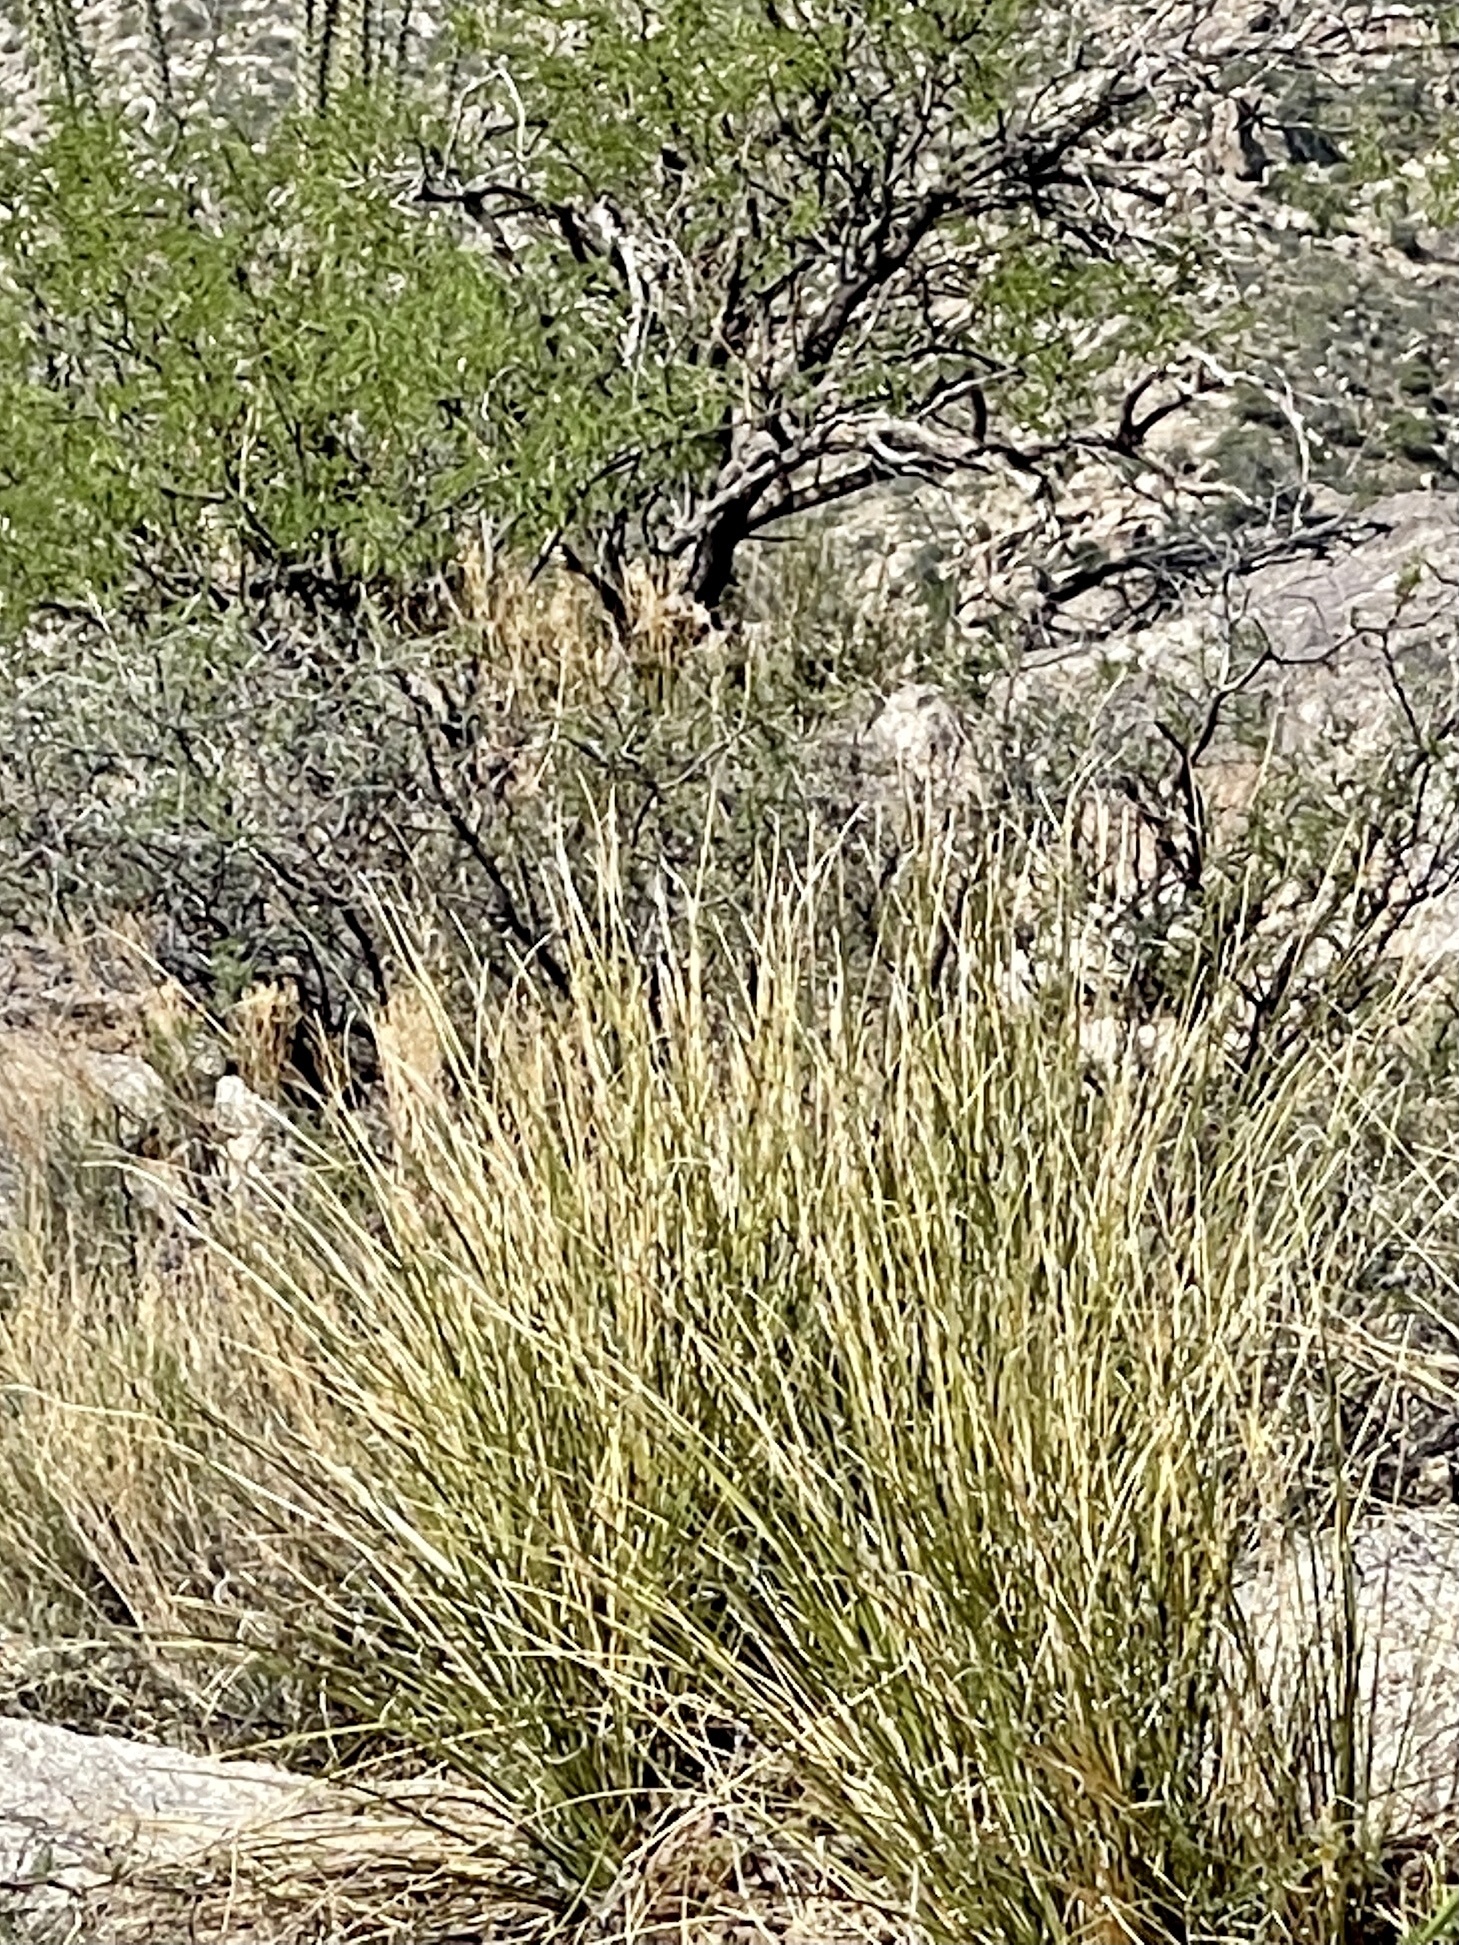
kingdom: Plantae
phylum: Tracheophyta
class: Liliopsida
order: Asparagales
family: Asparagaceae
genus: Nolina
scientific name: Nolina microcarpa
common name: Bear-grass
